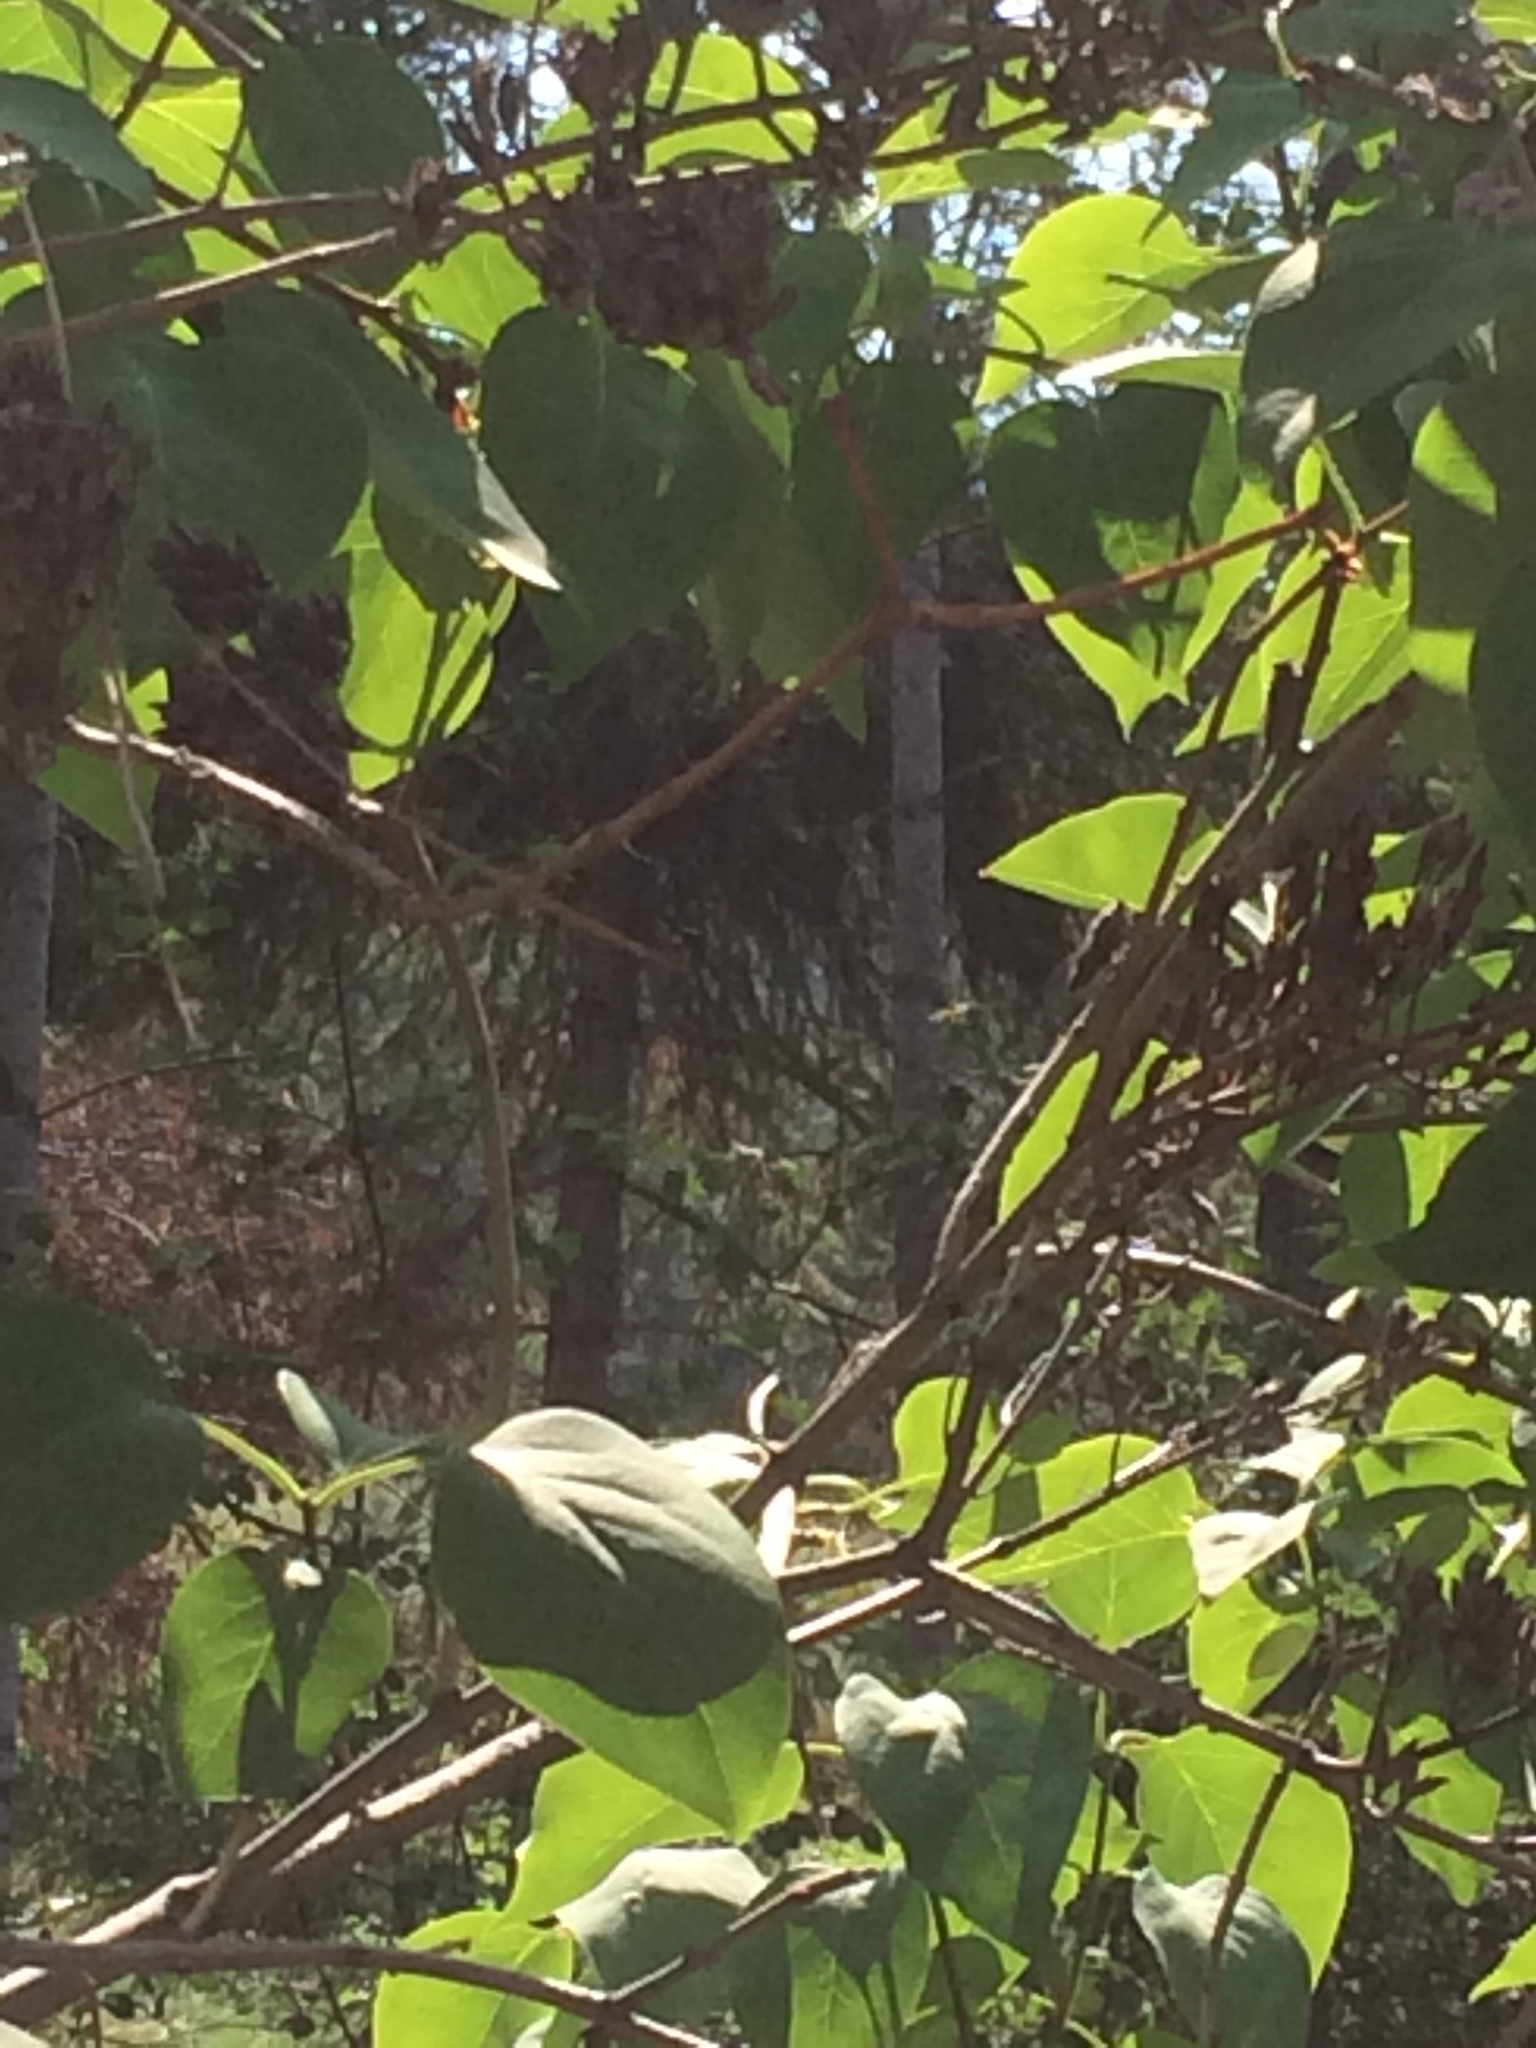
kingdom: Animalia
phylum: Arthropoda
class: Insecta
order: Hemiptera
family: Cicadidae
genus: Platypedia
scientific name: Platypedia areolata
